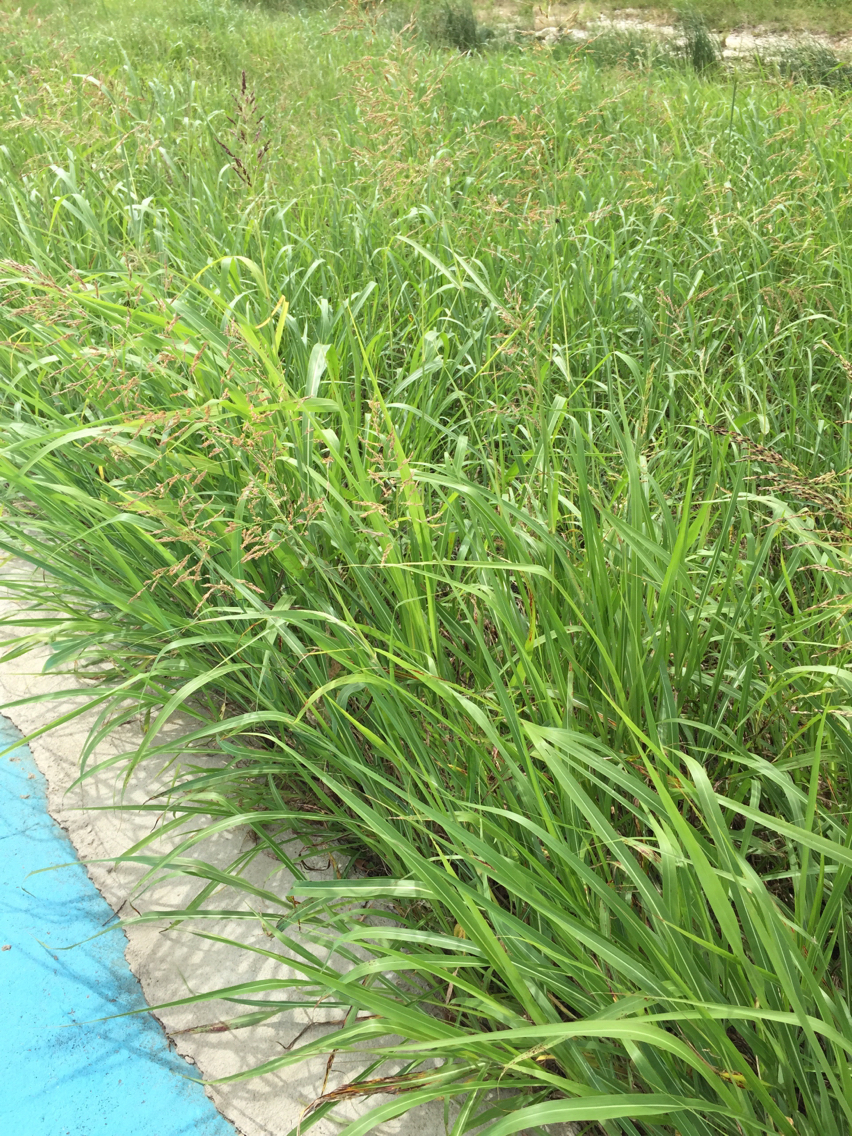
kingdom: Plantae
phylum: Tracheophyta
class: Liliopsida
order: Poales
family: Poaceae
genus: Sorghum
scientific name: Sorghum halepense
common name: Johnson-grass
